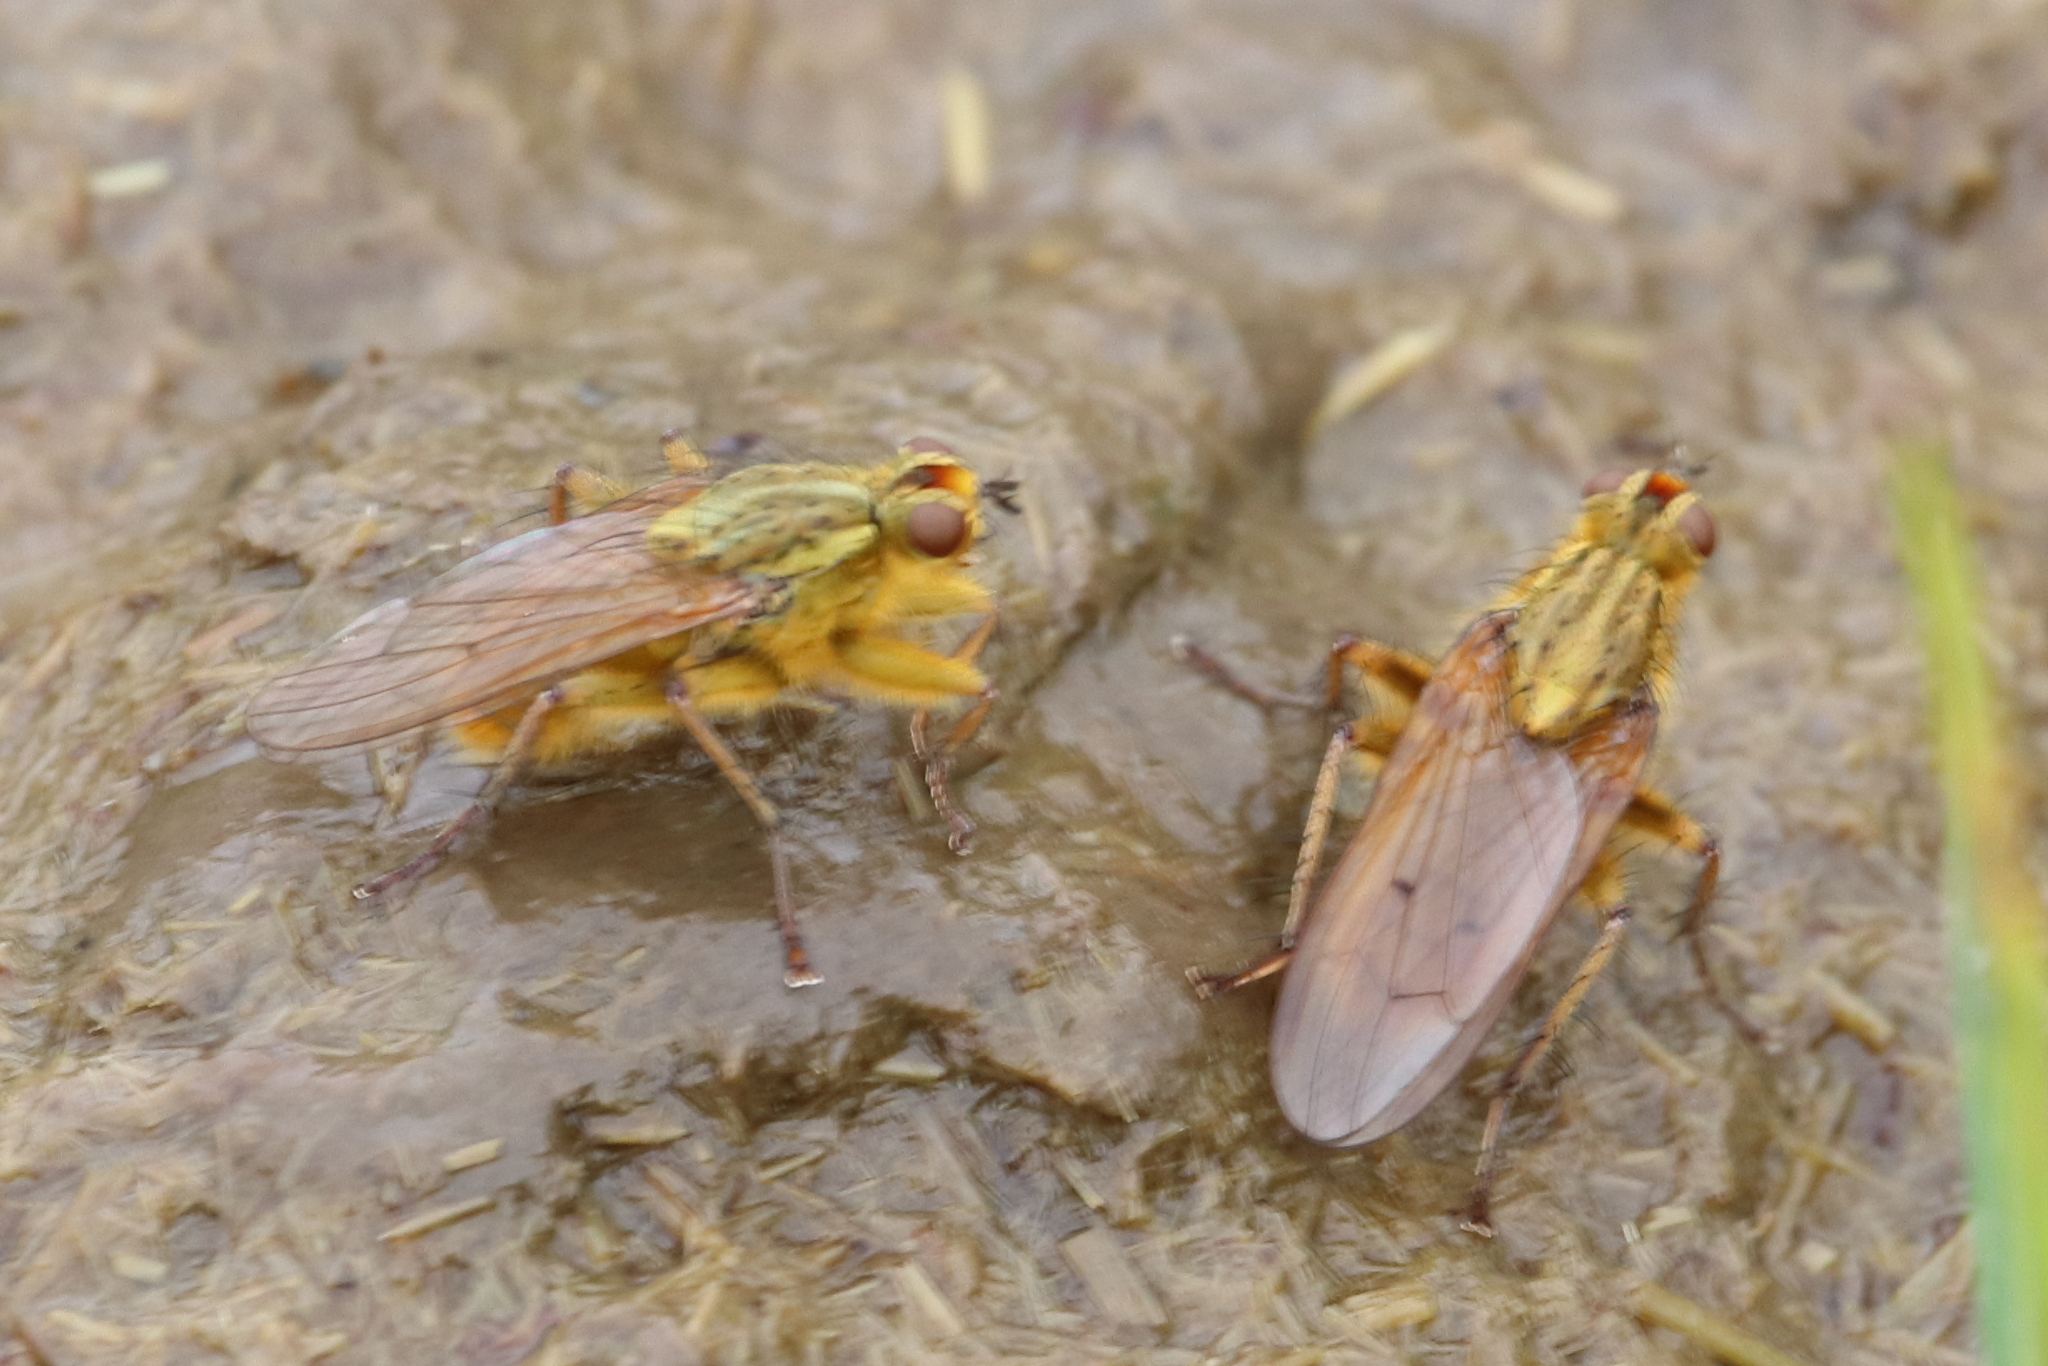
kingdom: Animalia
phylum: Arthropoda
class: Insecta
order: Diptera
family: Scathophagidae
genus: Scathophaga
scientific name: Scathophaga stercoraria
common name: Yellow dung fly
